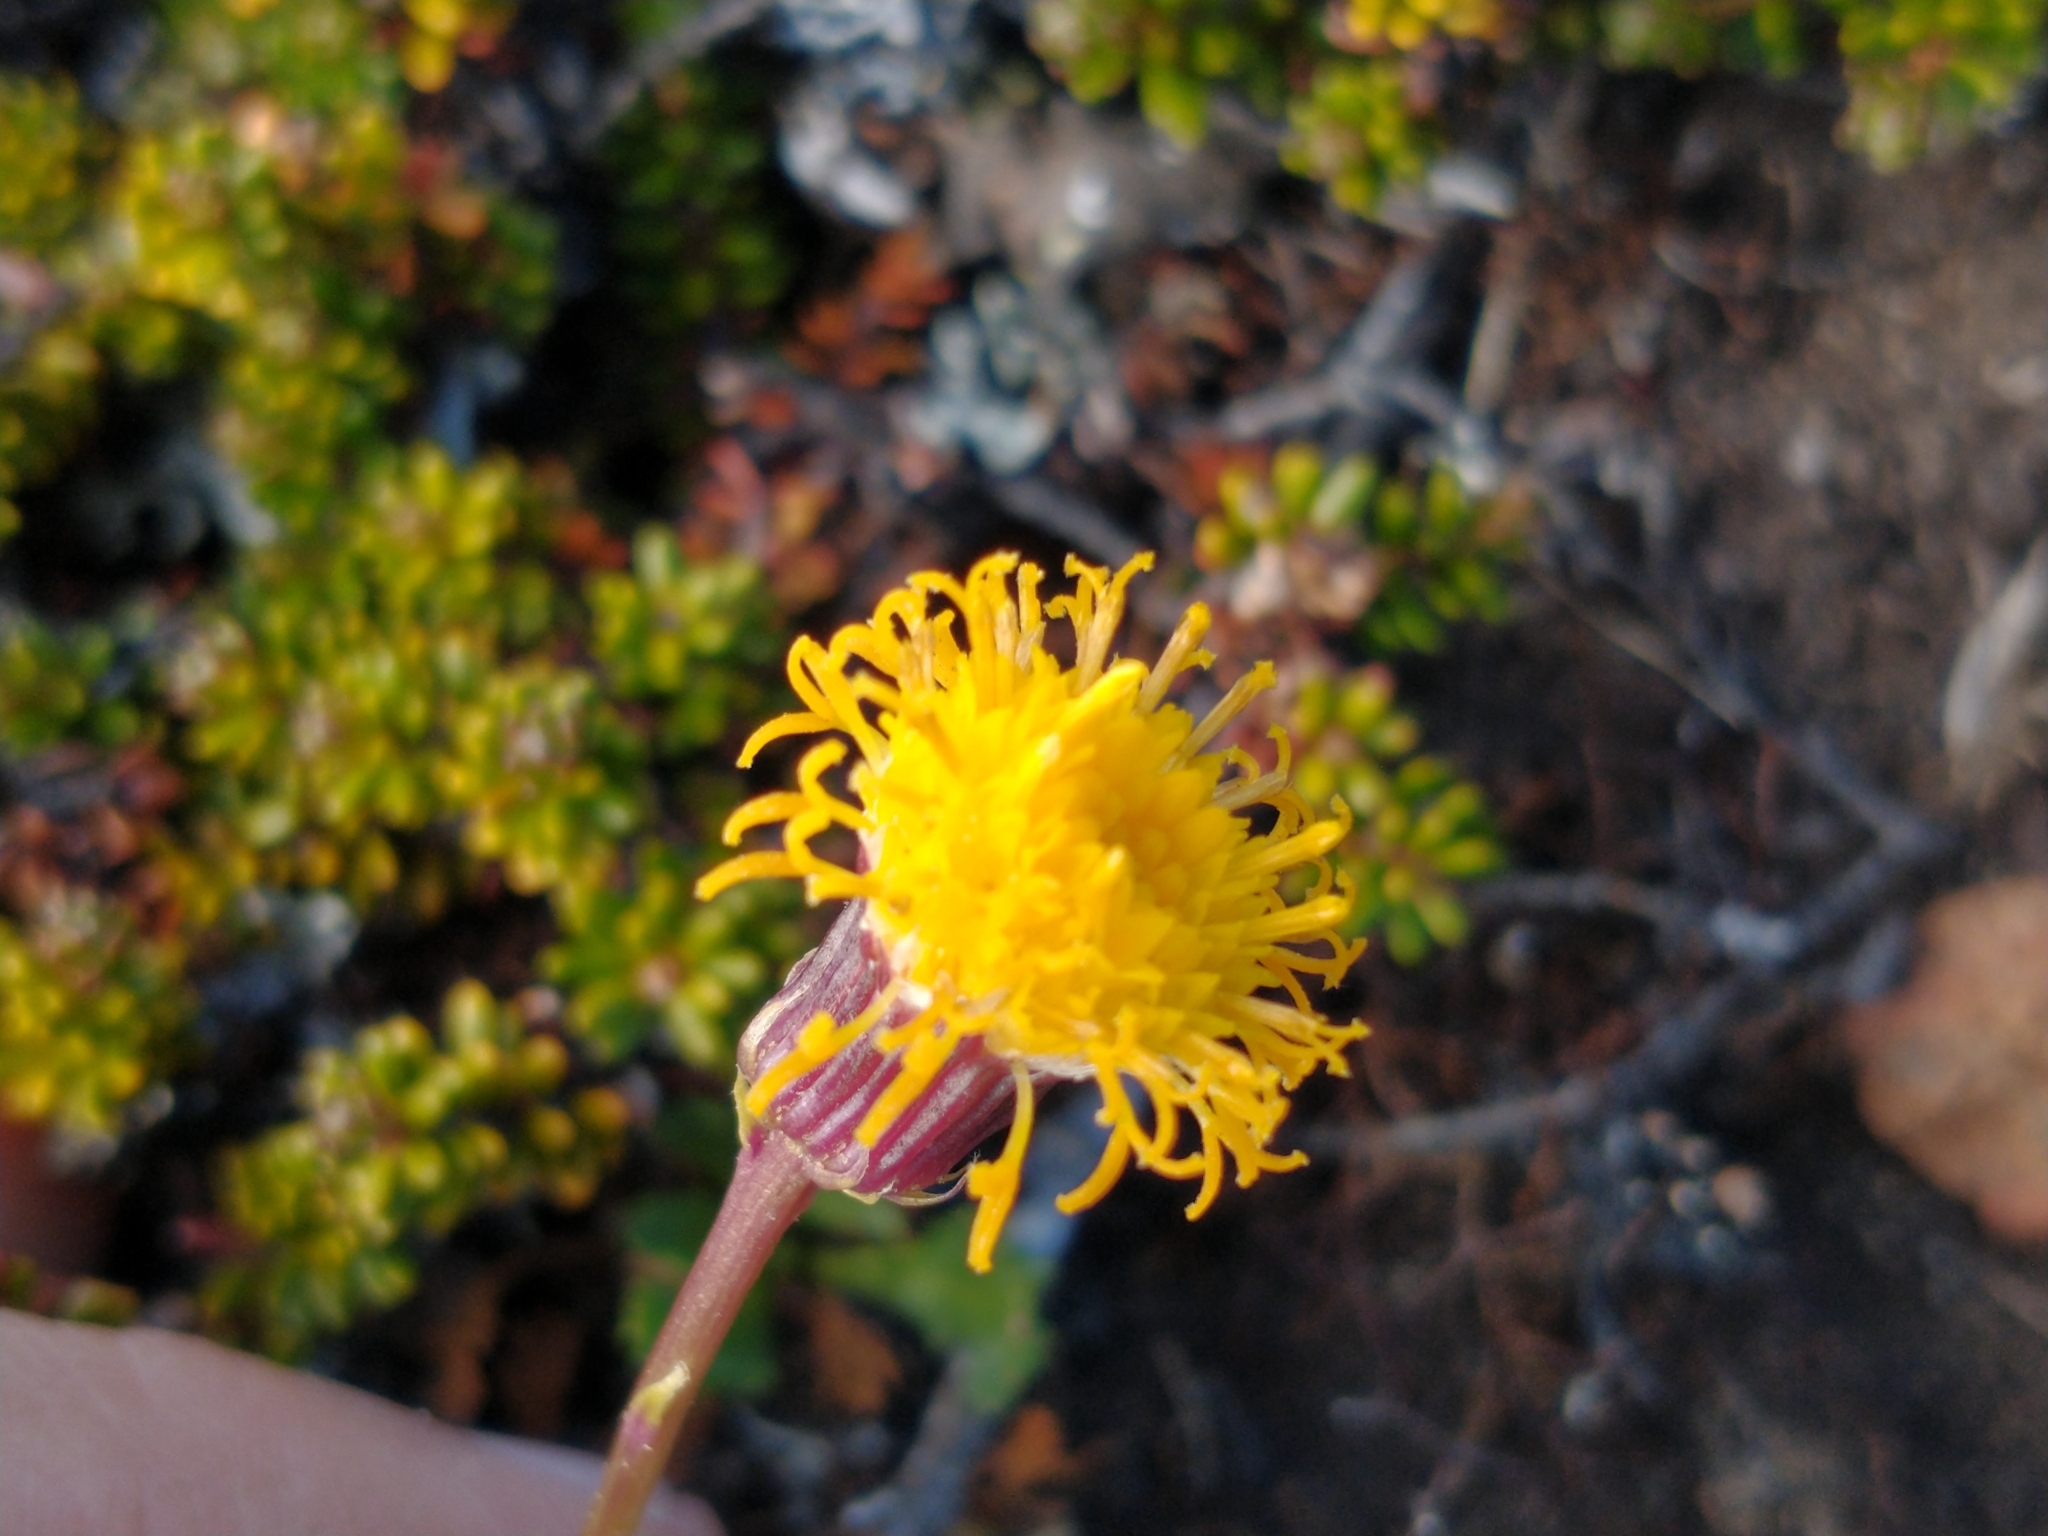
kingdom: Plantae
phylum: Tracheophyta
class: Magnoliopsida
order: Asterales
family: Asteraceae
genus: Senecio
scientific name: Senecio kingii
